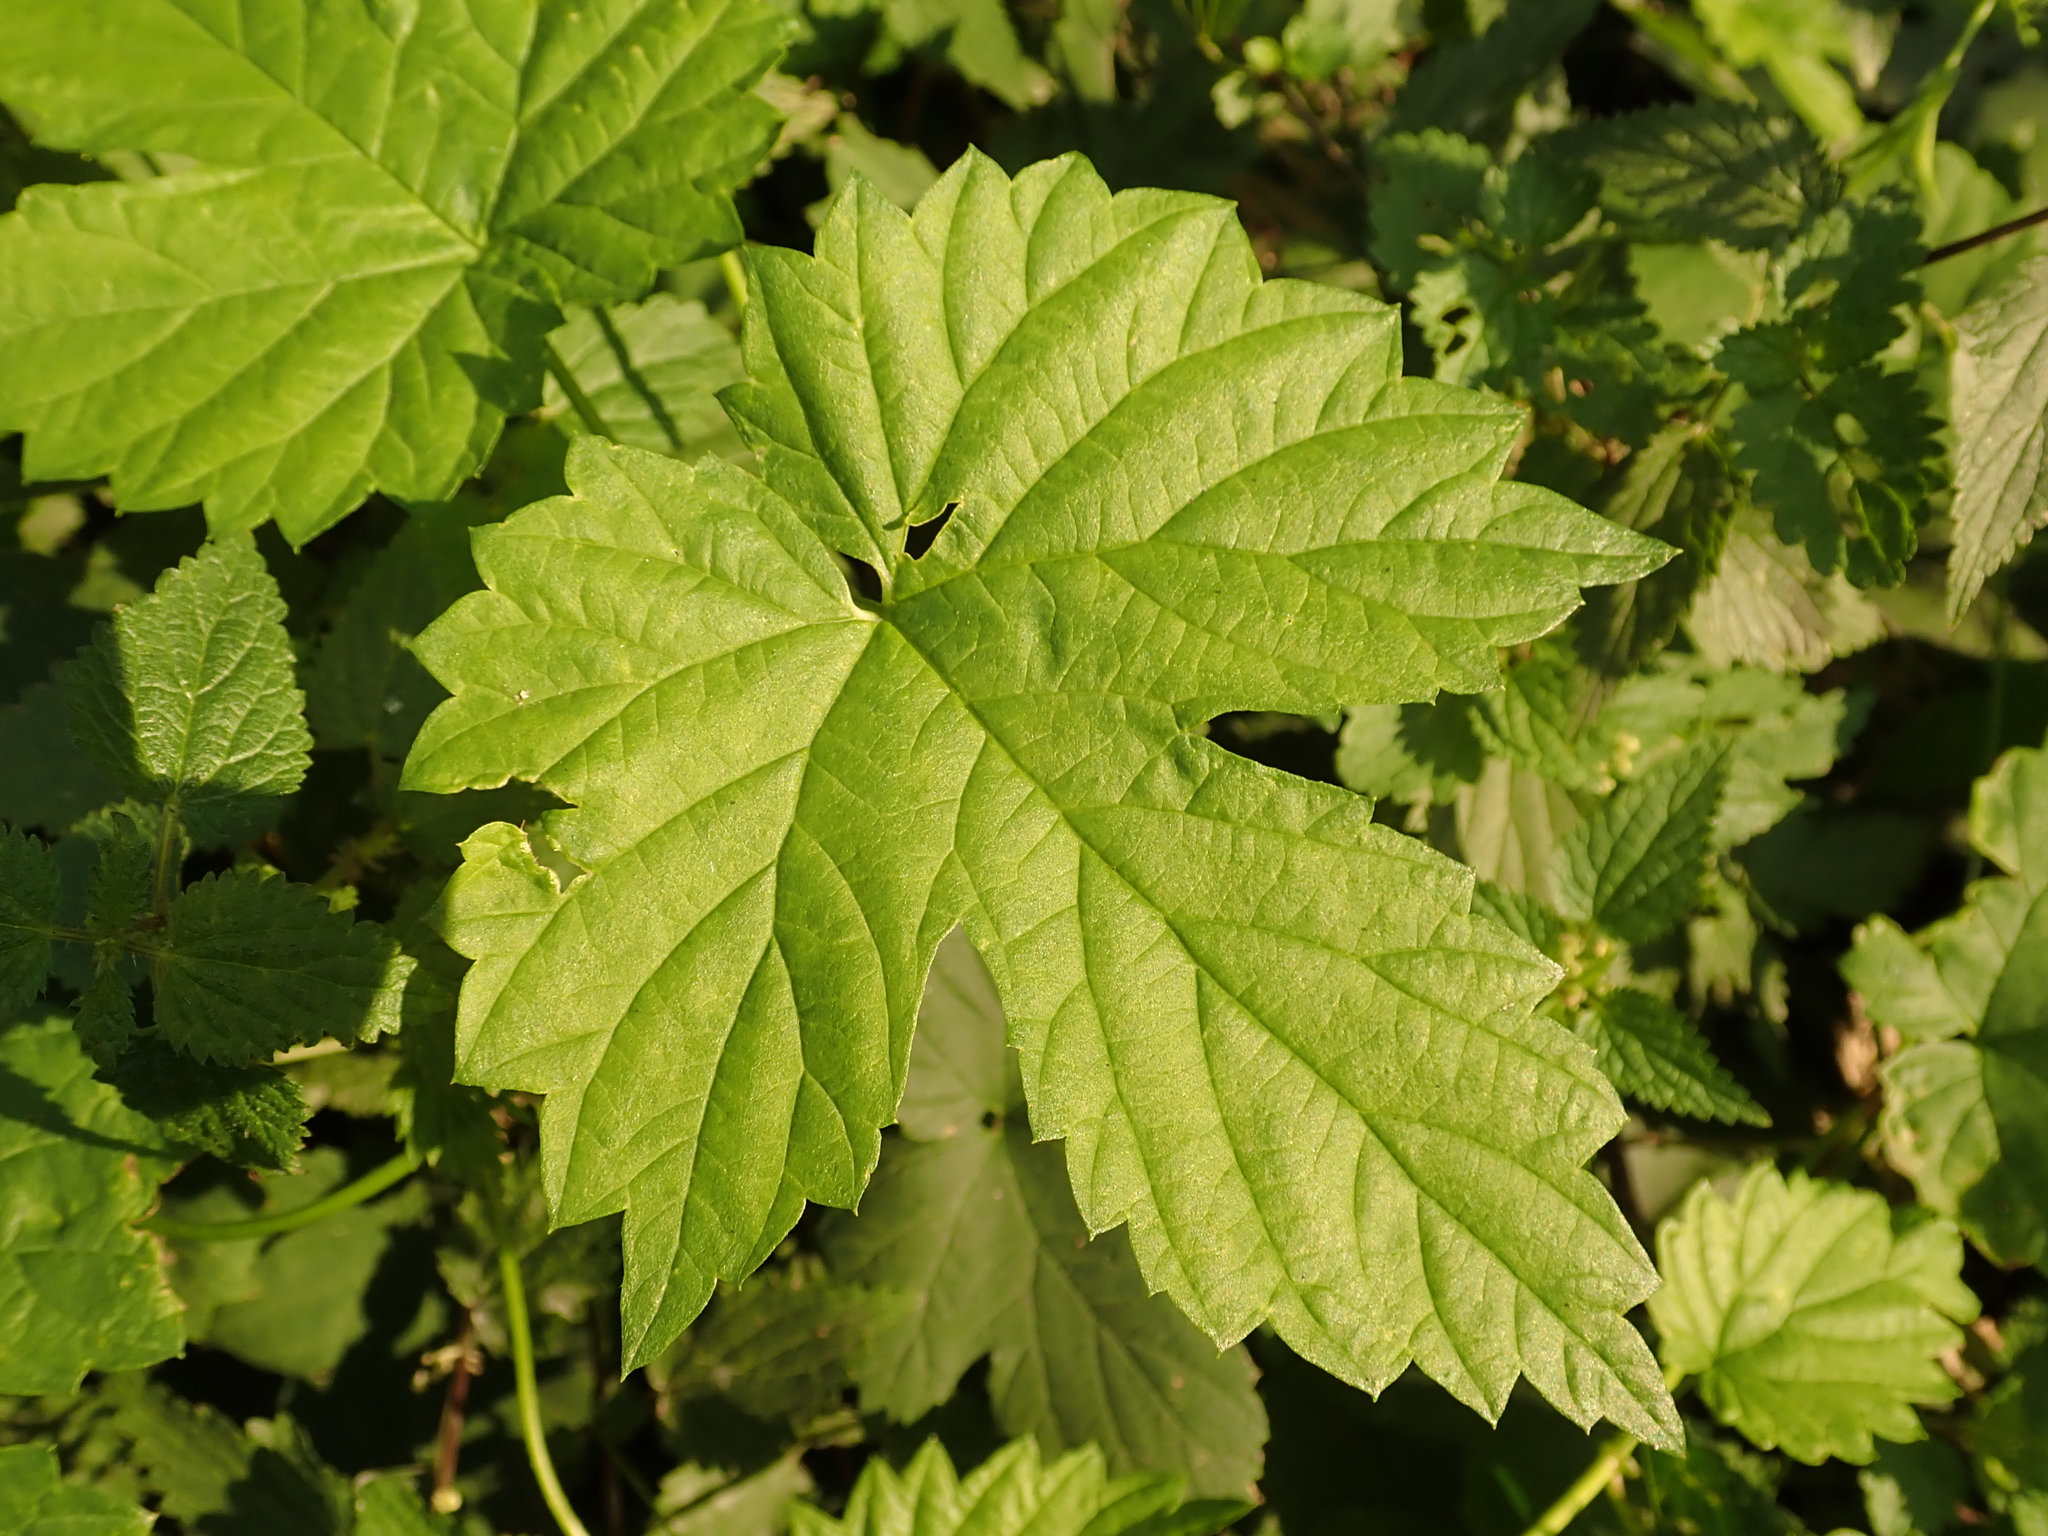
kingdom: Plantae
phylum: Tracheophyta
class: Magnoliopsida
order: Rosales
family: Cannabaceae
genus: Humulus
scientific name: Humulus lupulus
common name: Hop
